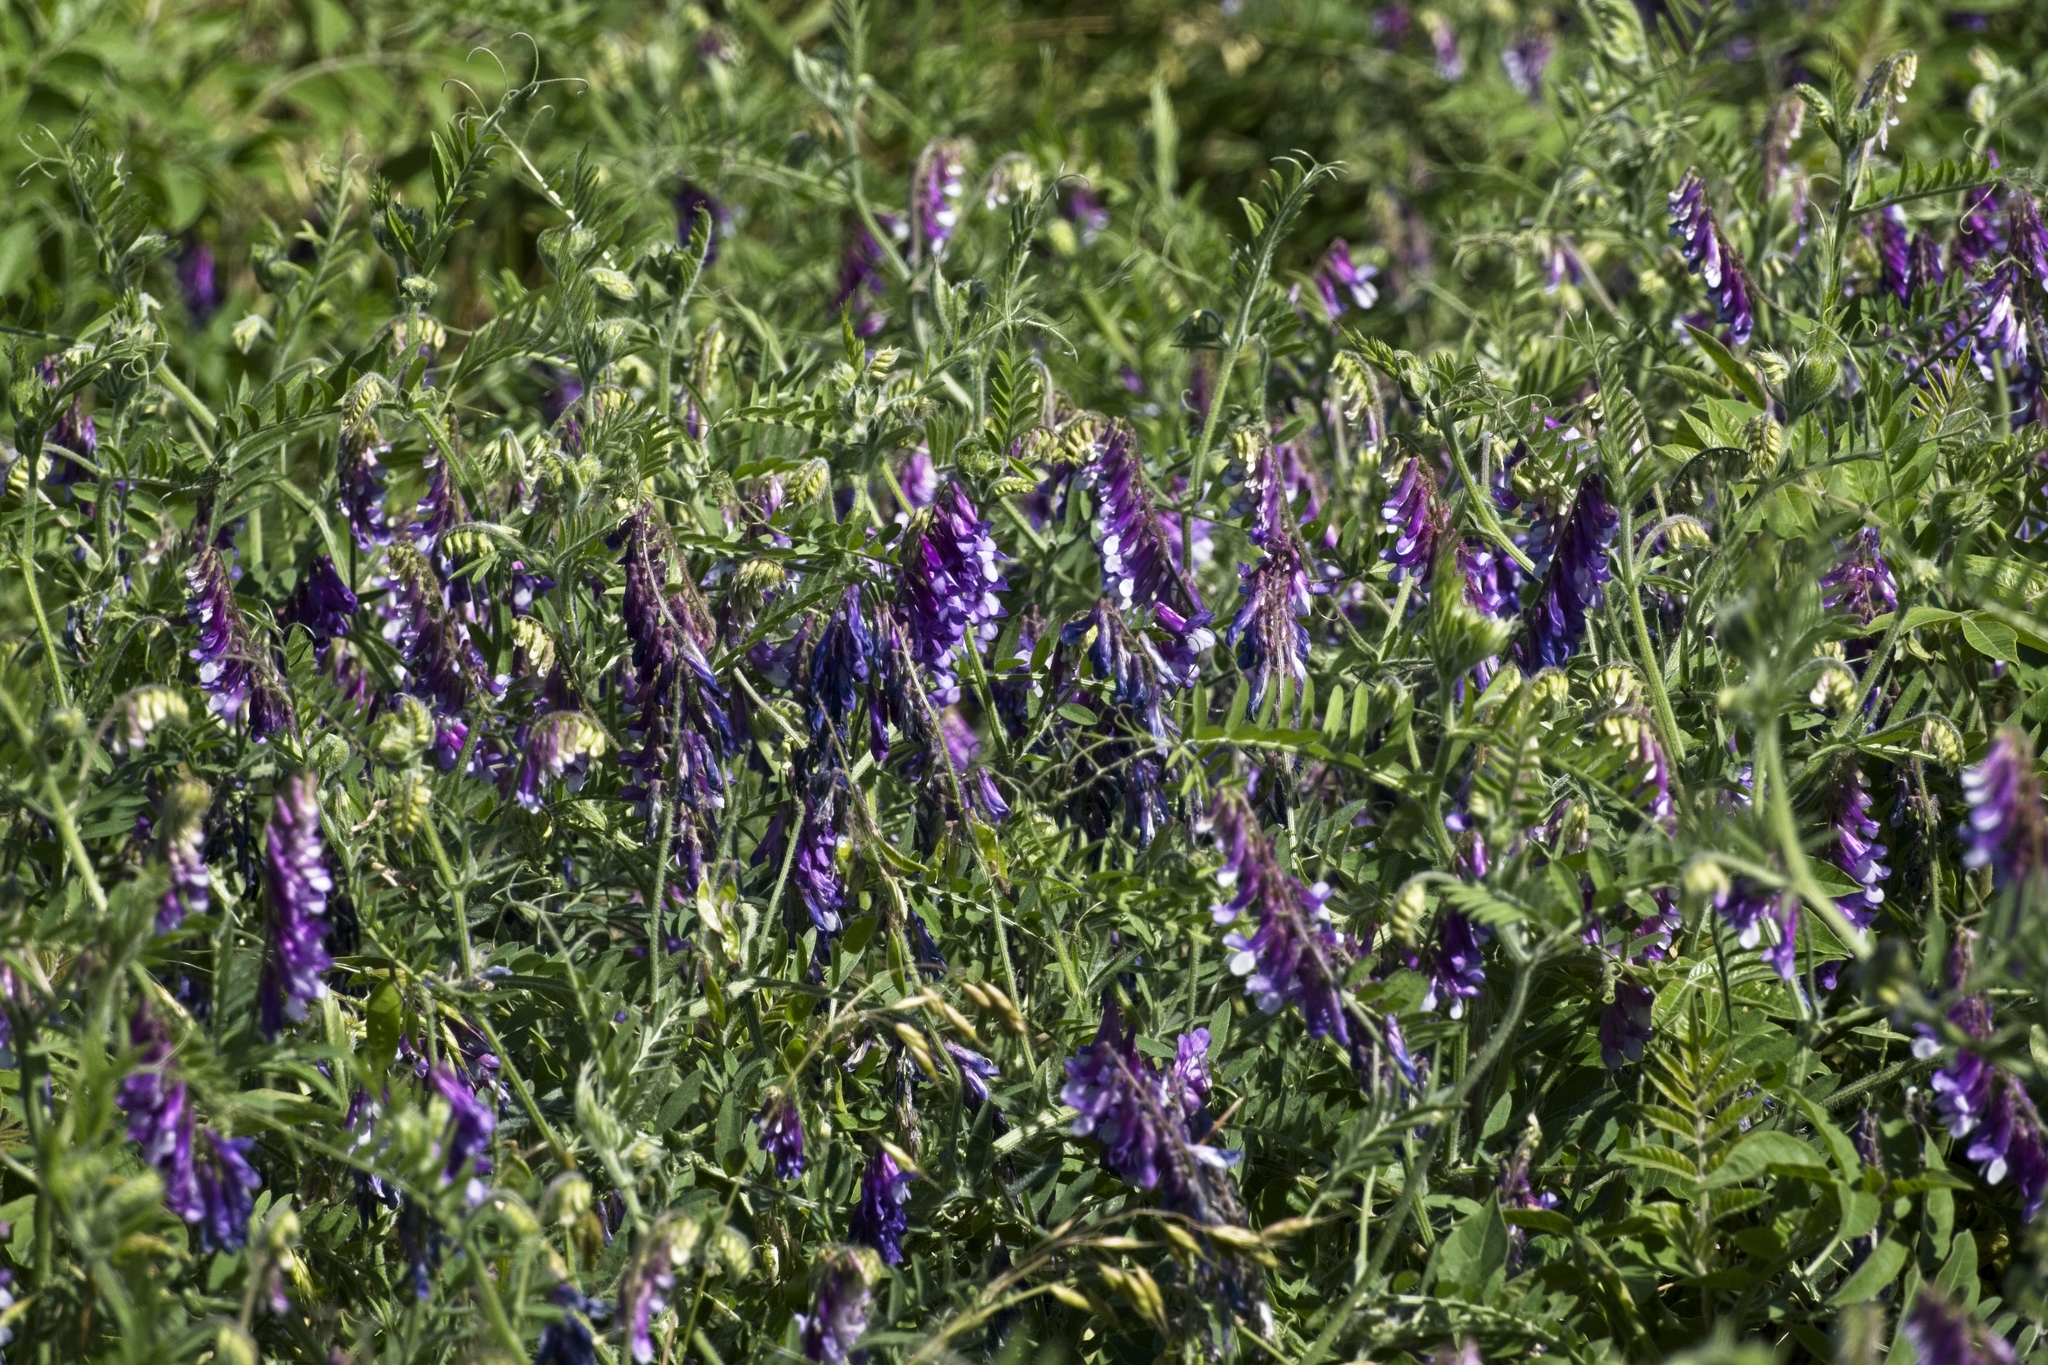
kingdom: Plantae
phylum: Tracheophyta
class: Magnoliopsida
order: Fabales
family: Fabaceae
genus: Vicia
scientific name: Vicia villosa
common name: Fodder vetch
